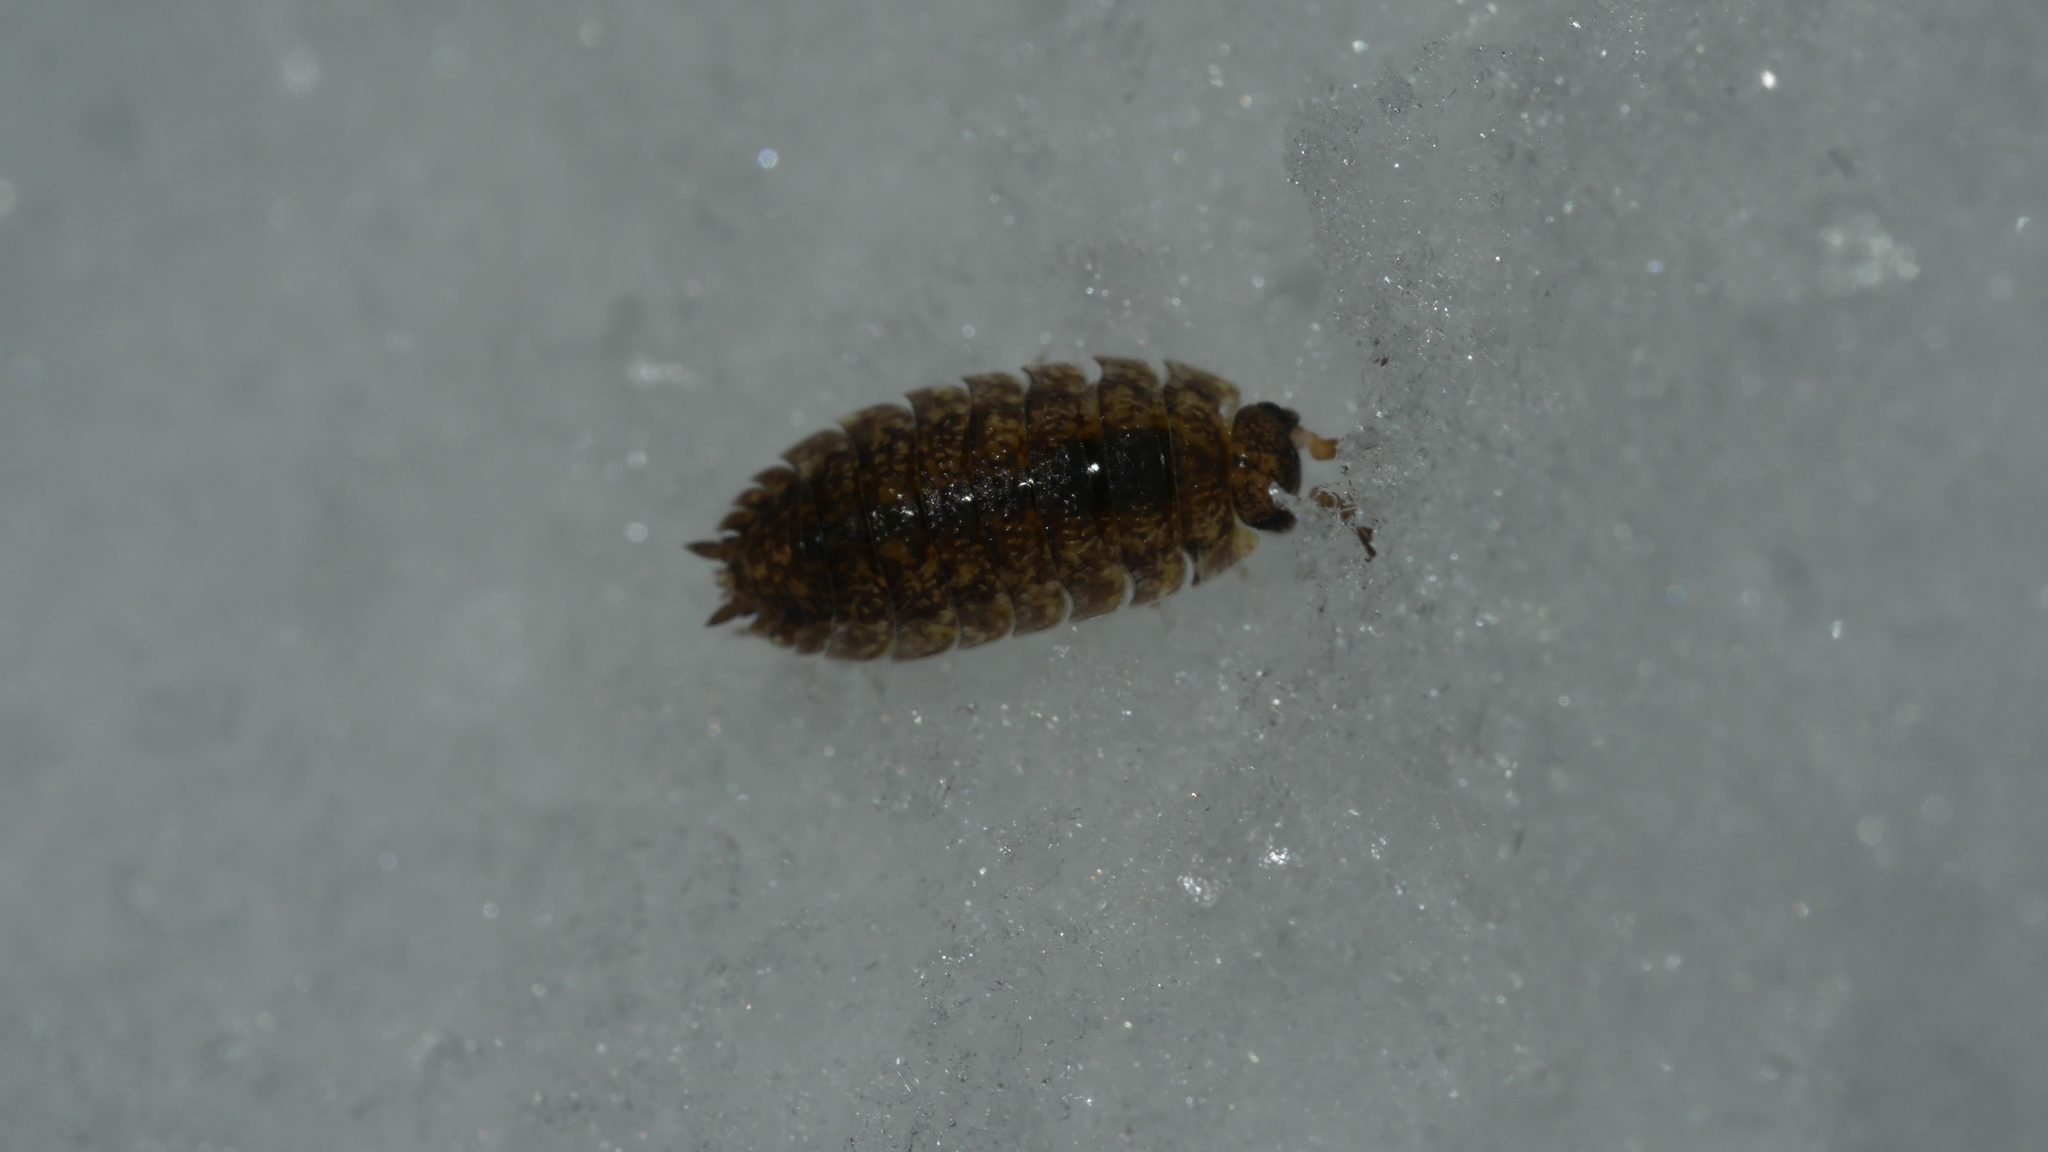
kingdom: Animalia
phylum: Arthropoda
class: Malacostraca
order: Isopoda
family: Porcellionidae
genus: Porcellio
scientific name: Porcellio scaber
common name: Common rough woodlouse
